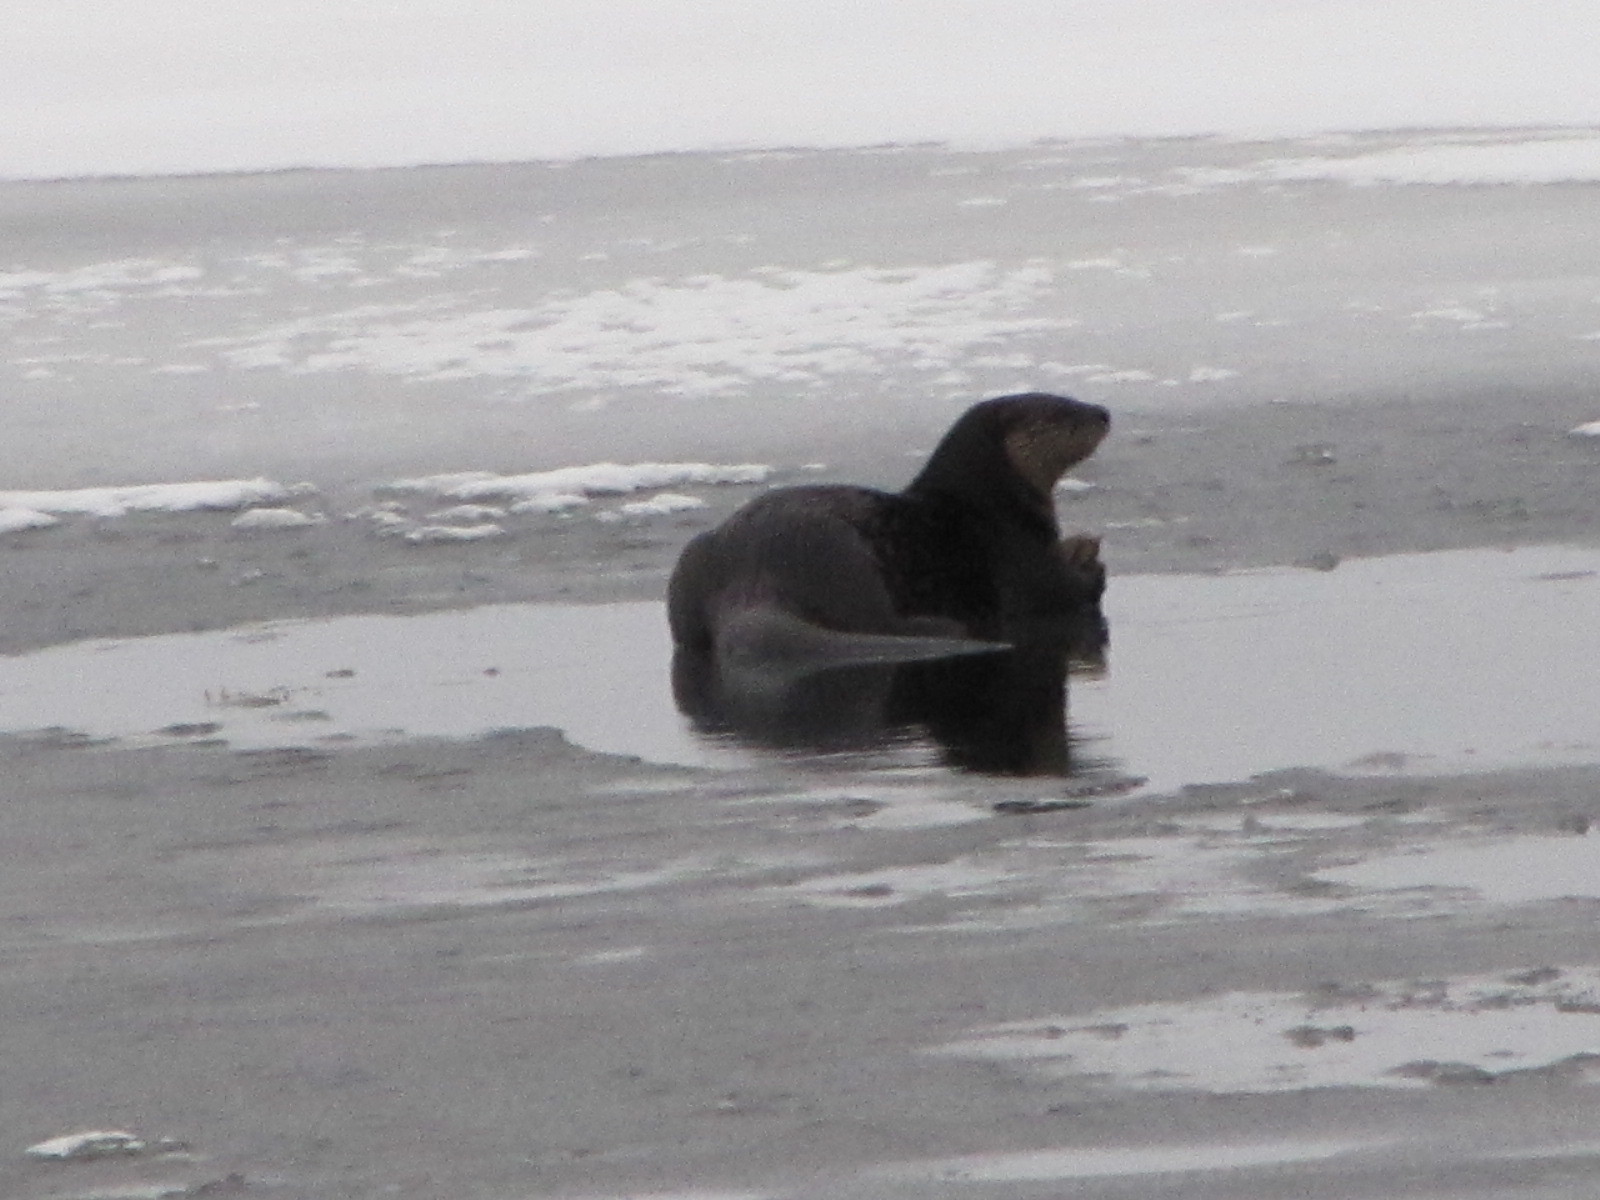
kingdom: Animalia
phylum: Chordata
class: Mammalia
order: Carnivora
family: Mustelidae
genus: Lontra
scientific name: Lontra canadensis
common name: North american river otter
